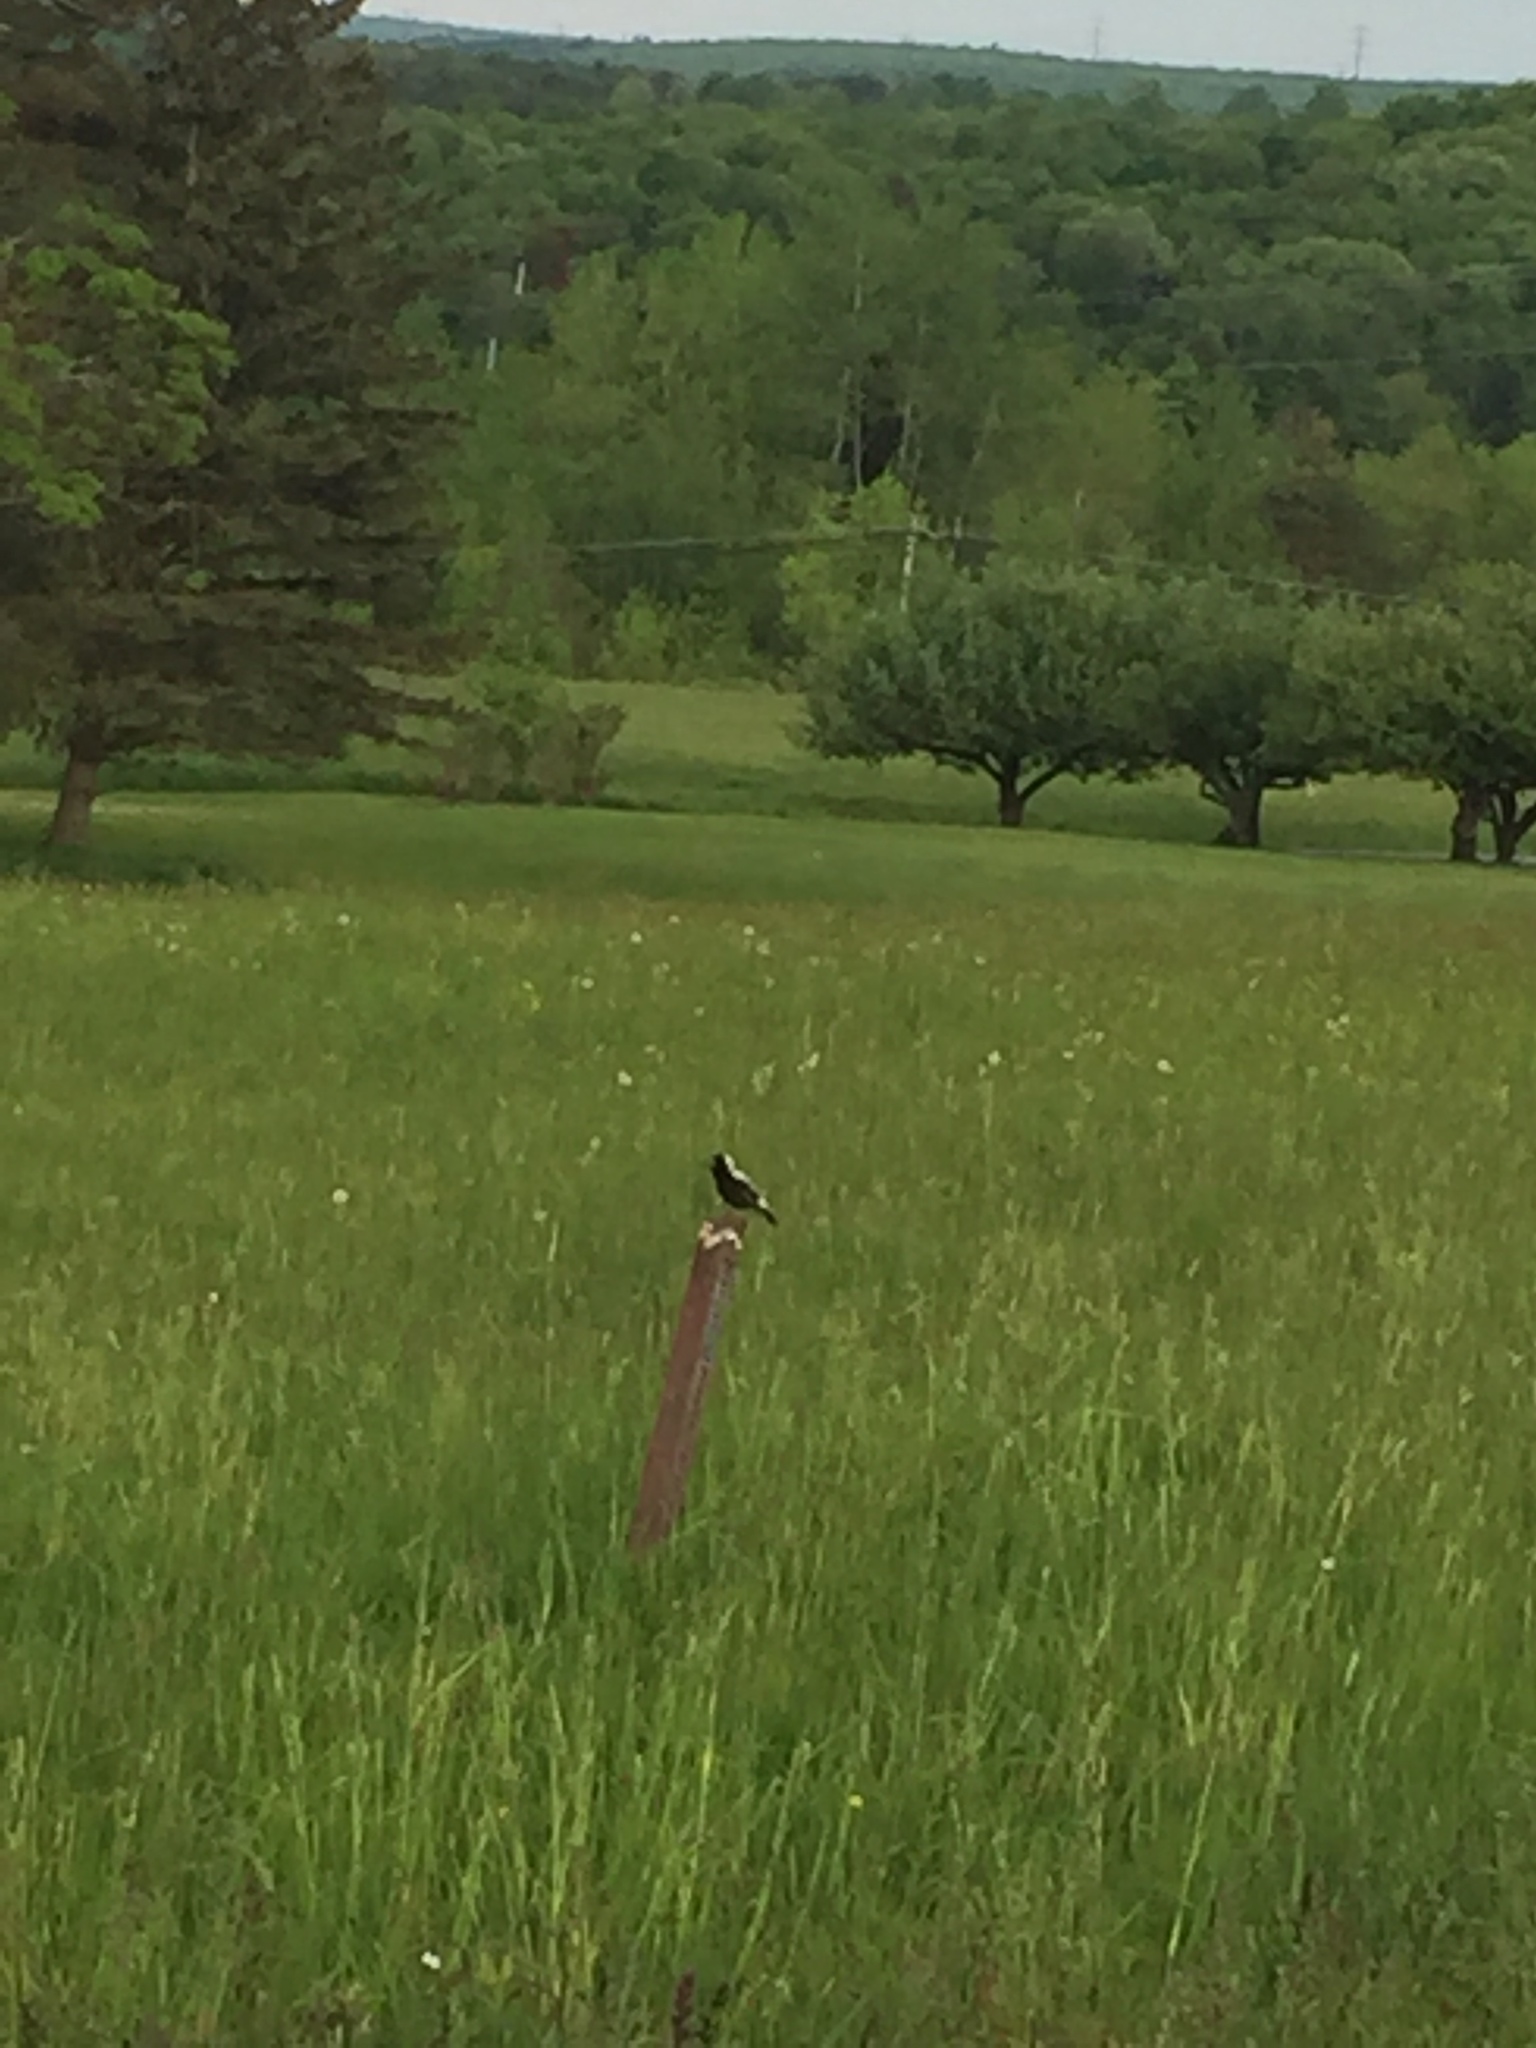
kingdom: Animalia
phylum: Chordata
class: Aves
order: Passeriformes
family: Icteridae
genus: Dolichonyx
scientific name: Dolichonyx oryzivorus
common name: Bobolink
